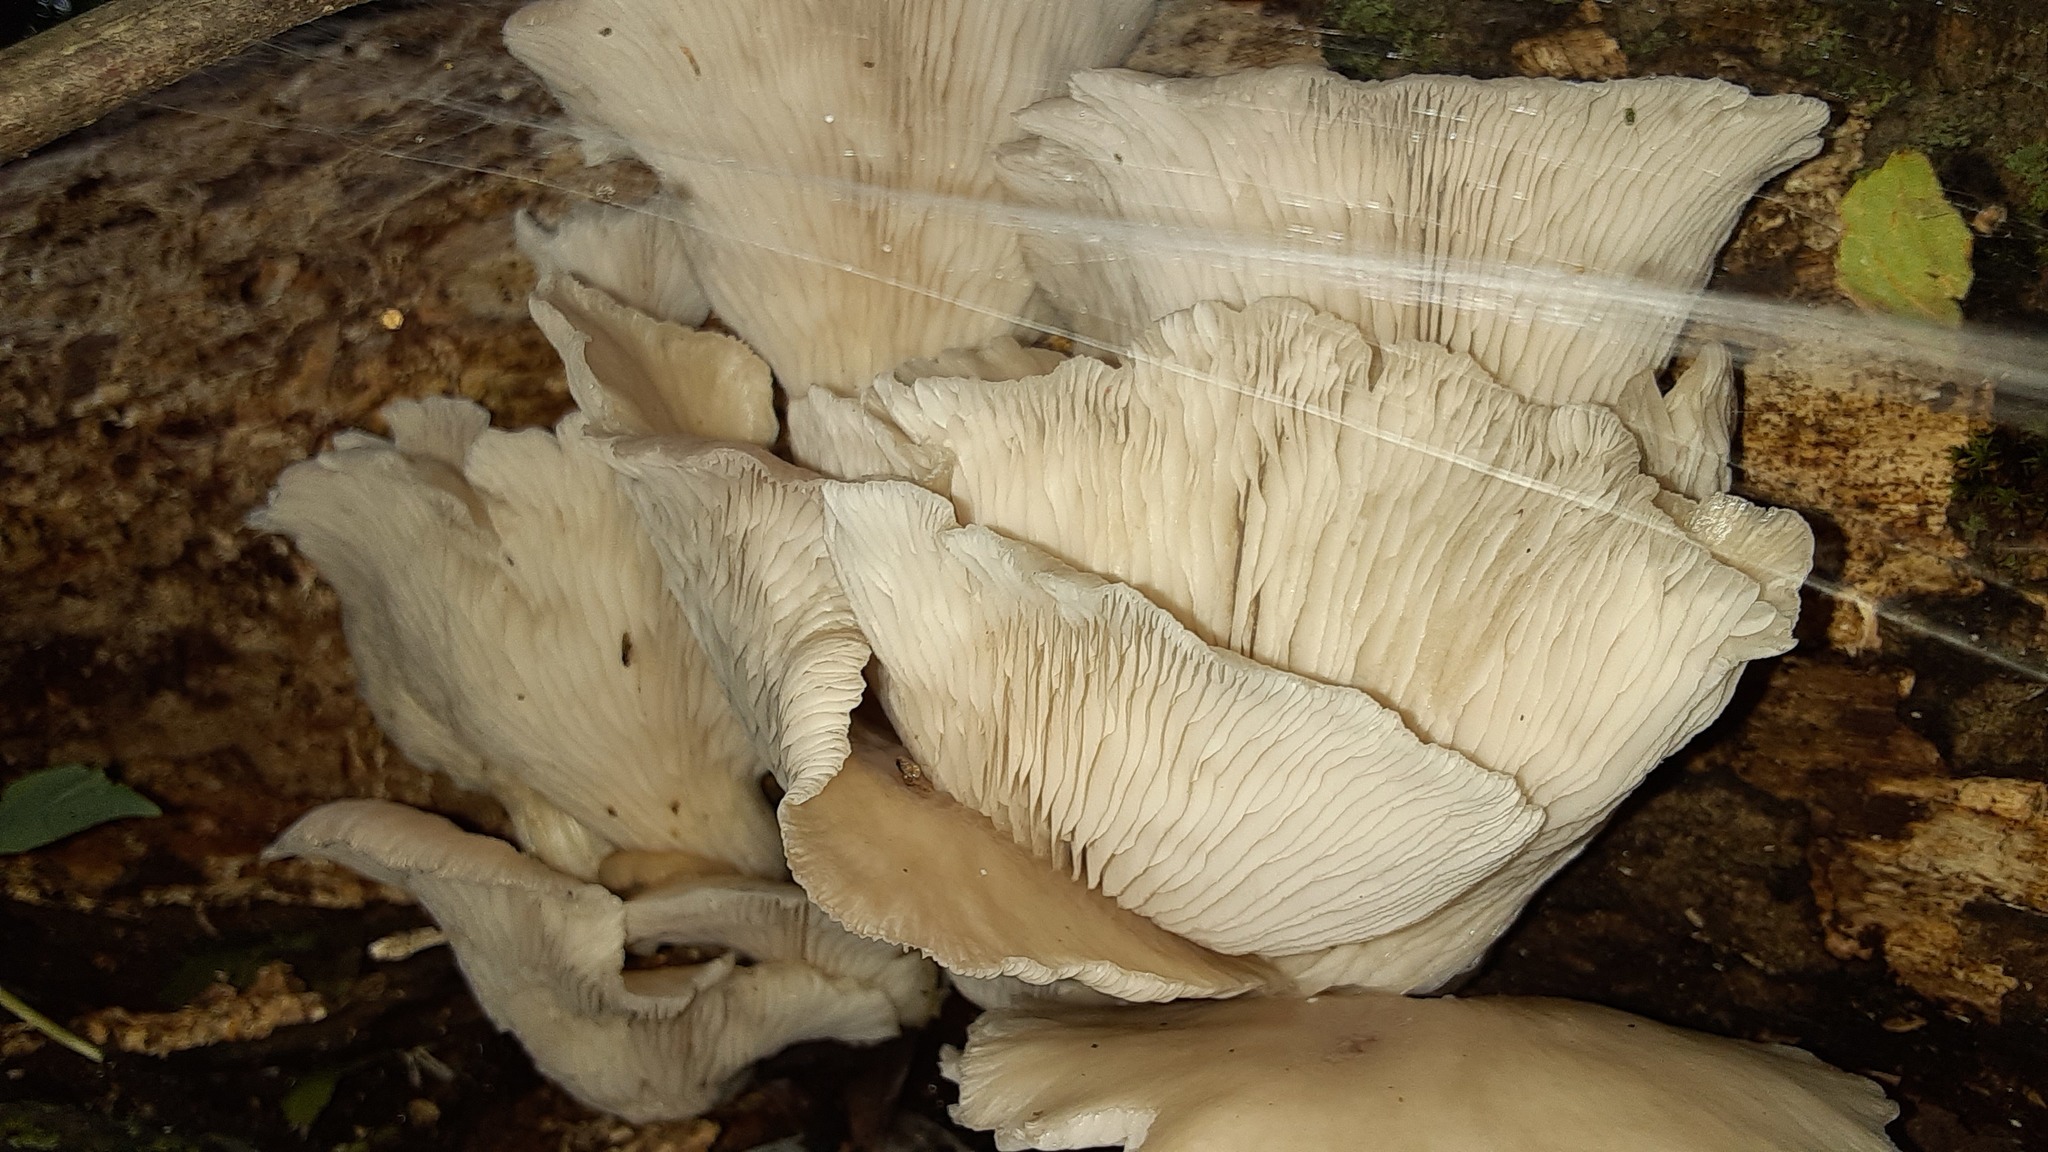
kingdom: Fungi
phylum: Basidiomycota
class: Agaricomycetes
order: Agaricales
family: Pleurotaceae
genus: Pleurotus
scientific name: Pleurotus pulmonarius
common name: Pale oyster
